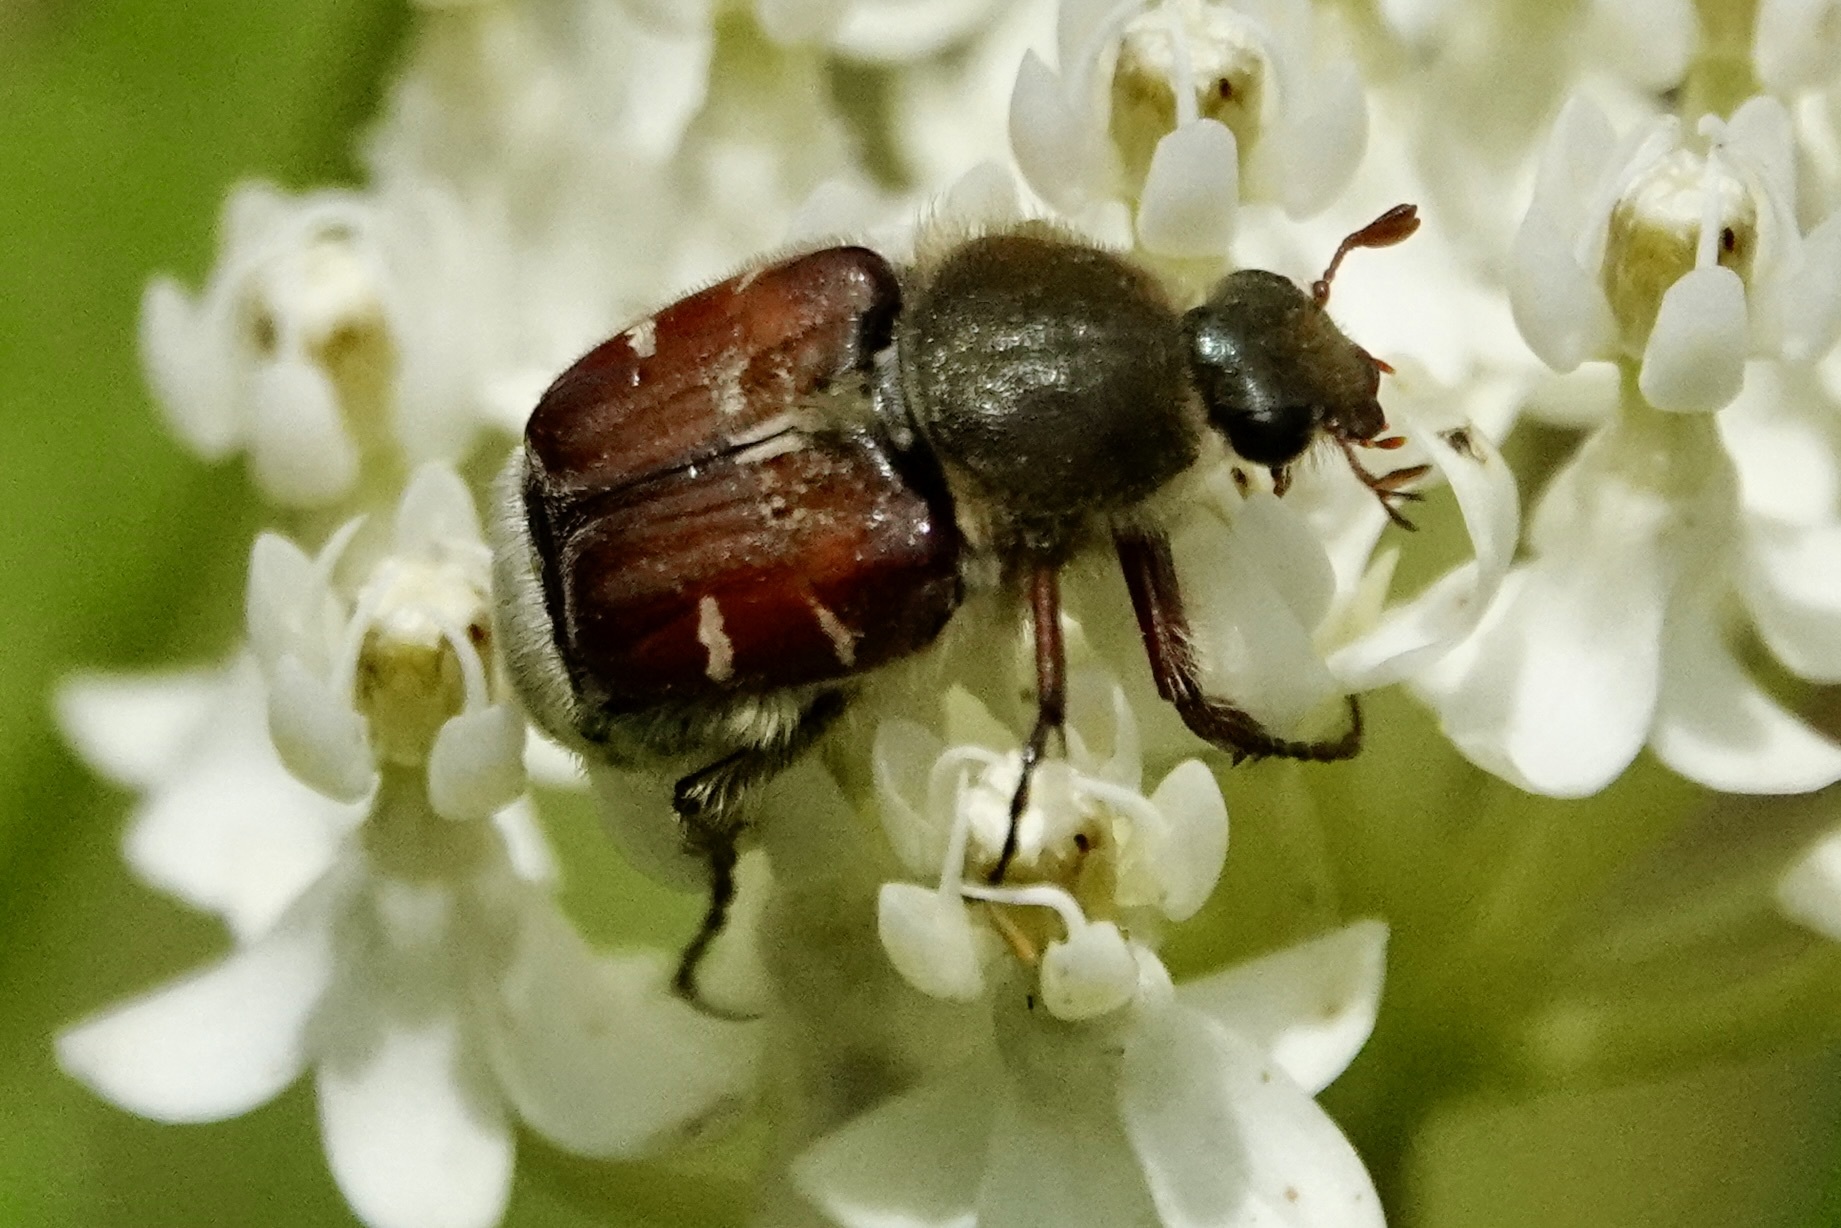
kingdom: Animalia
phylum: Arthropoda
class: Insecta
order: Coleoptera
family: Scarabaeidae
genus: Trichiotinus
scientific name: Trichiotinus piger
